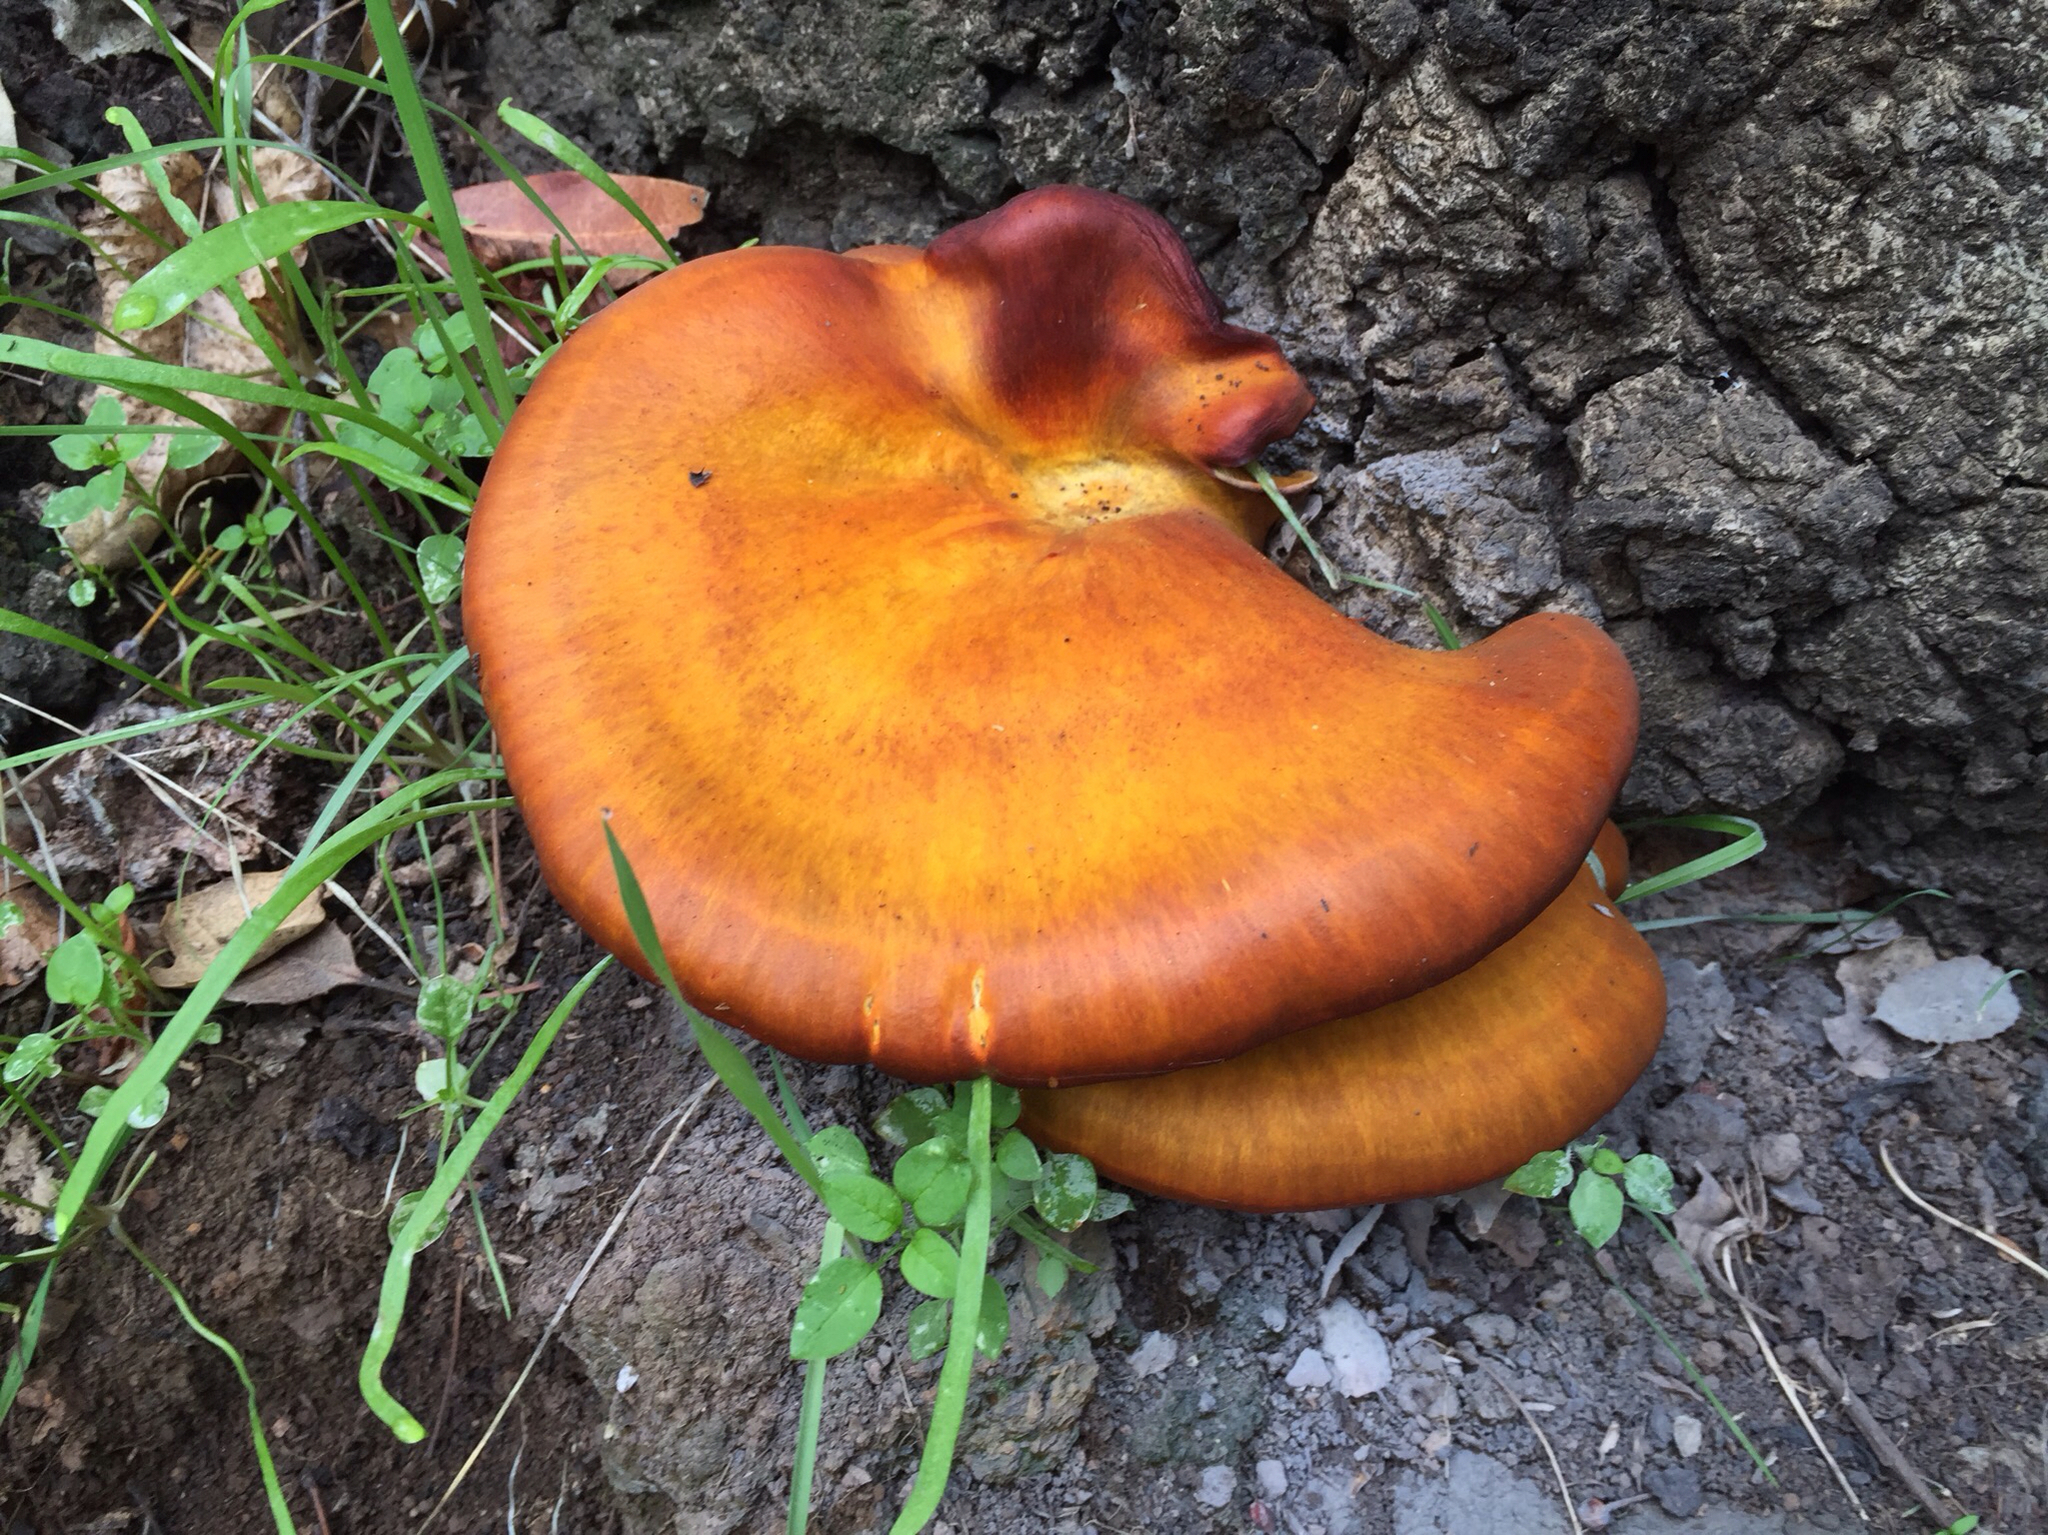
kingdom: Fungi
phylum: Basidiomycota
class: Agaricomycetes
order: Agaricales
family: Omphalotaceae
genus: Omphalotus
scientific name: Omphalotus olivascens
